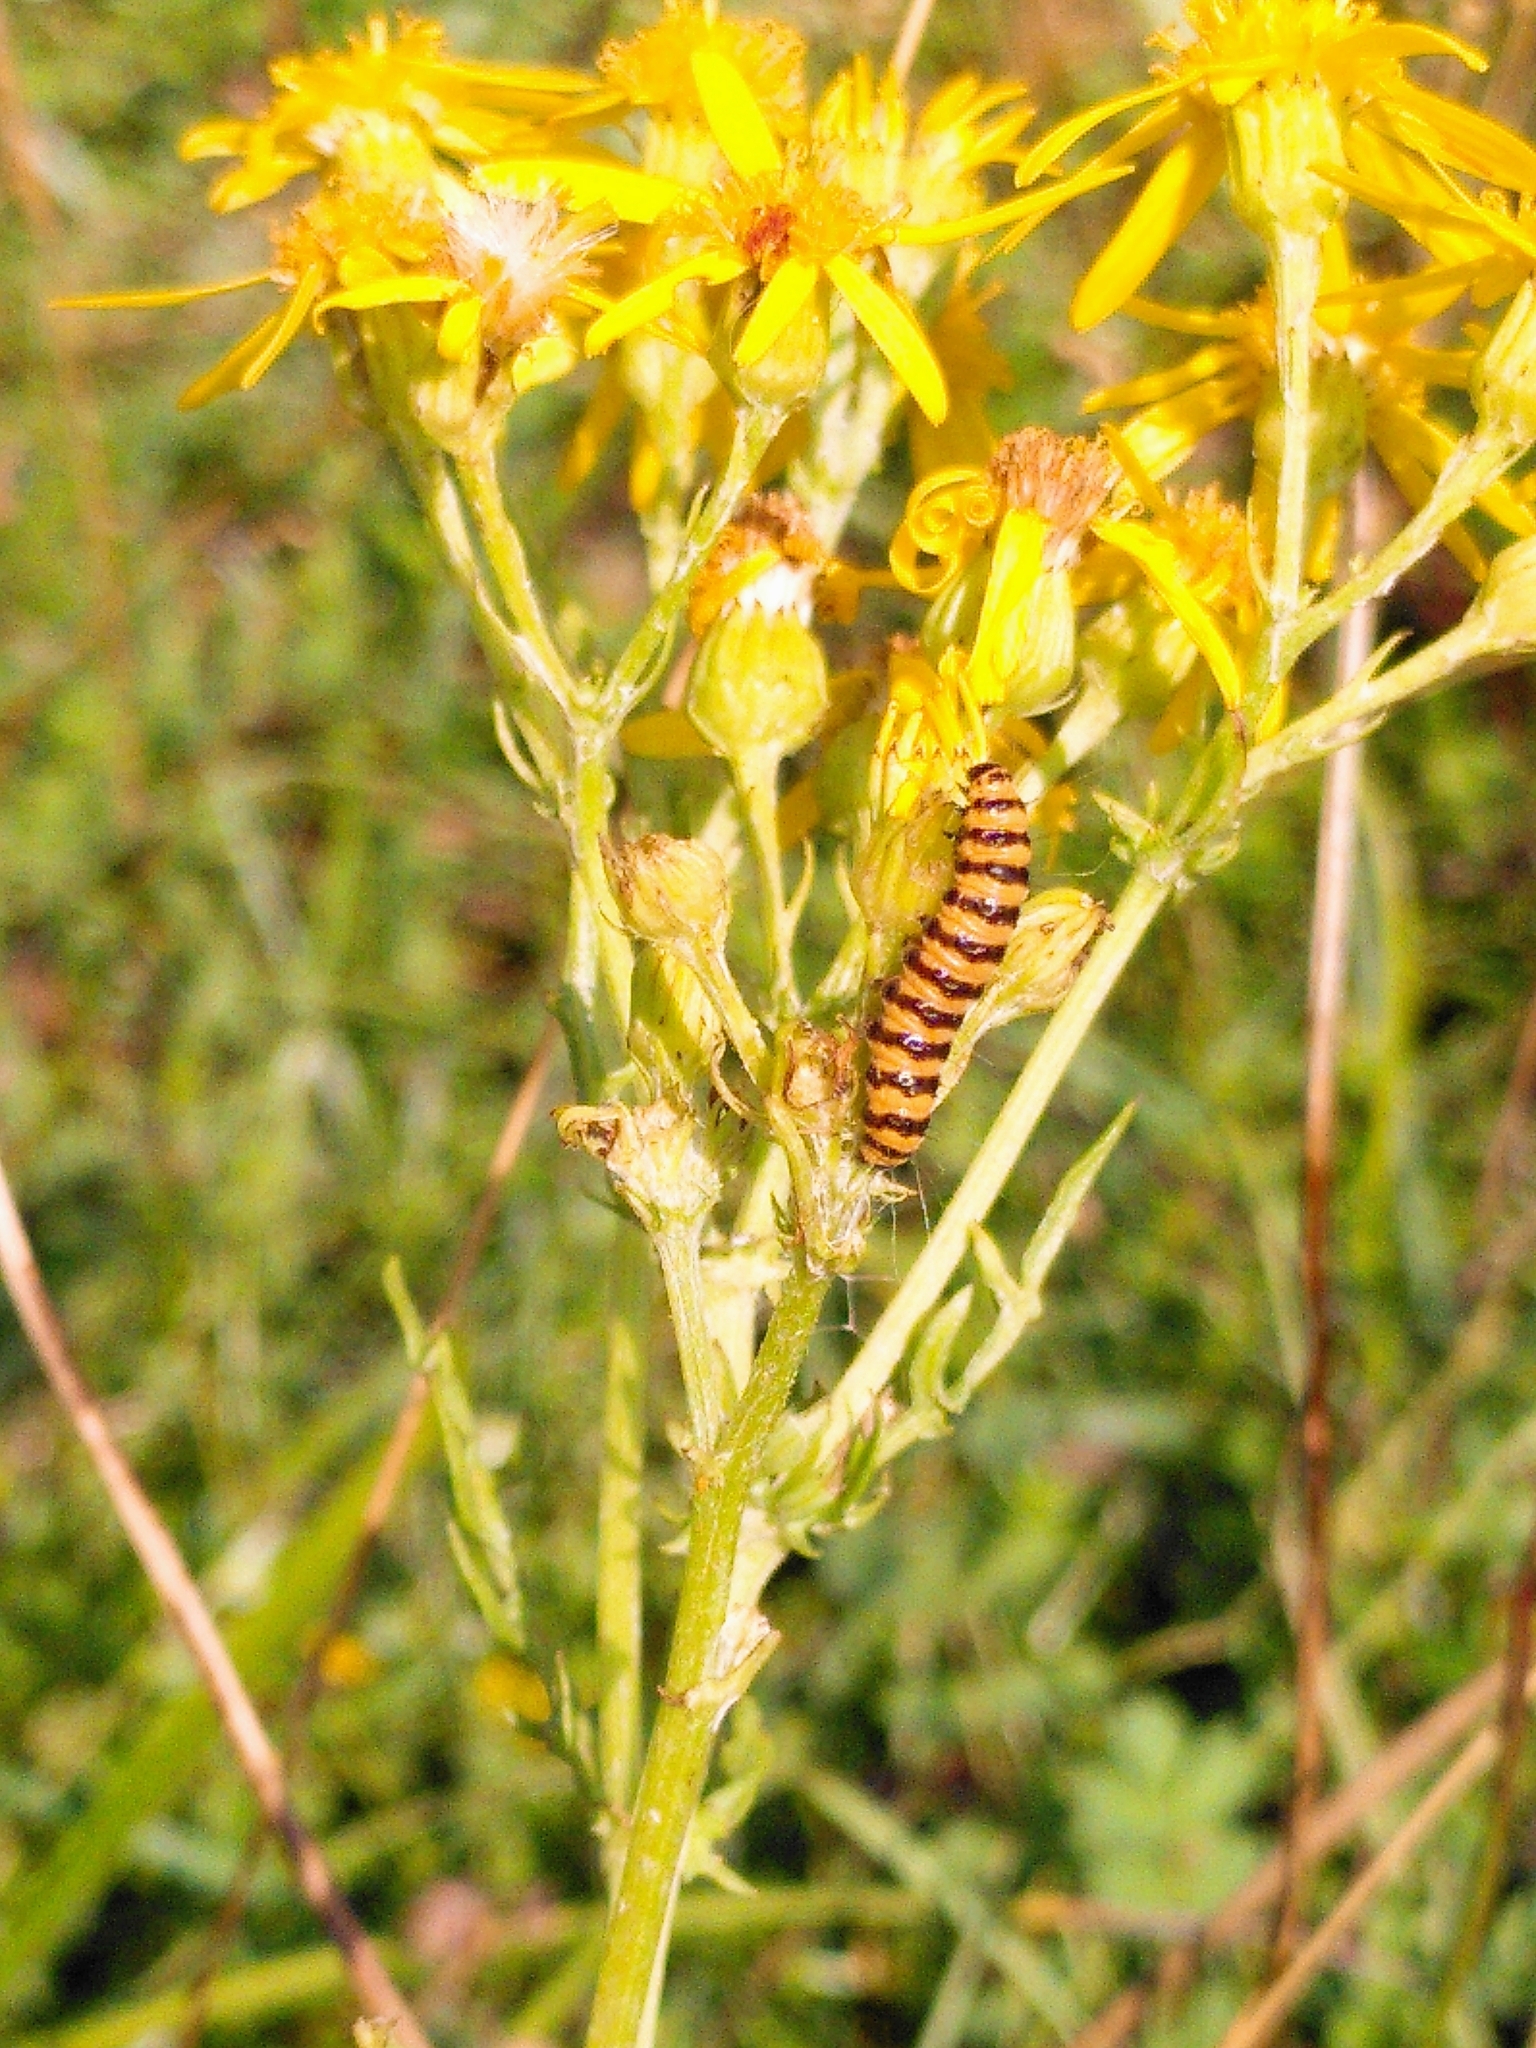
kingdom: Animalia
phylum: Arthropoda
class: Insecta
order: Lepidoptera
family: Erebidae
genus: Tyria
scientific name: Tyria jacobaeae
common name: Cinnabar
